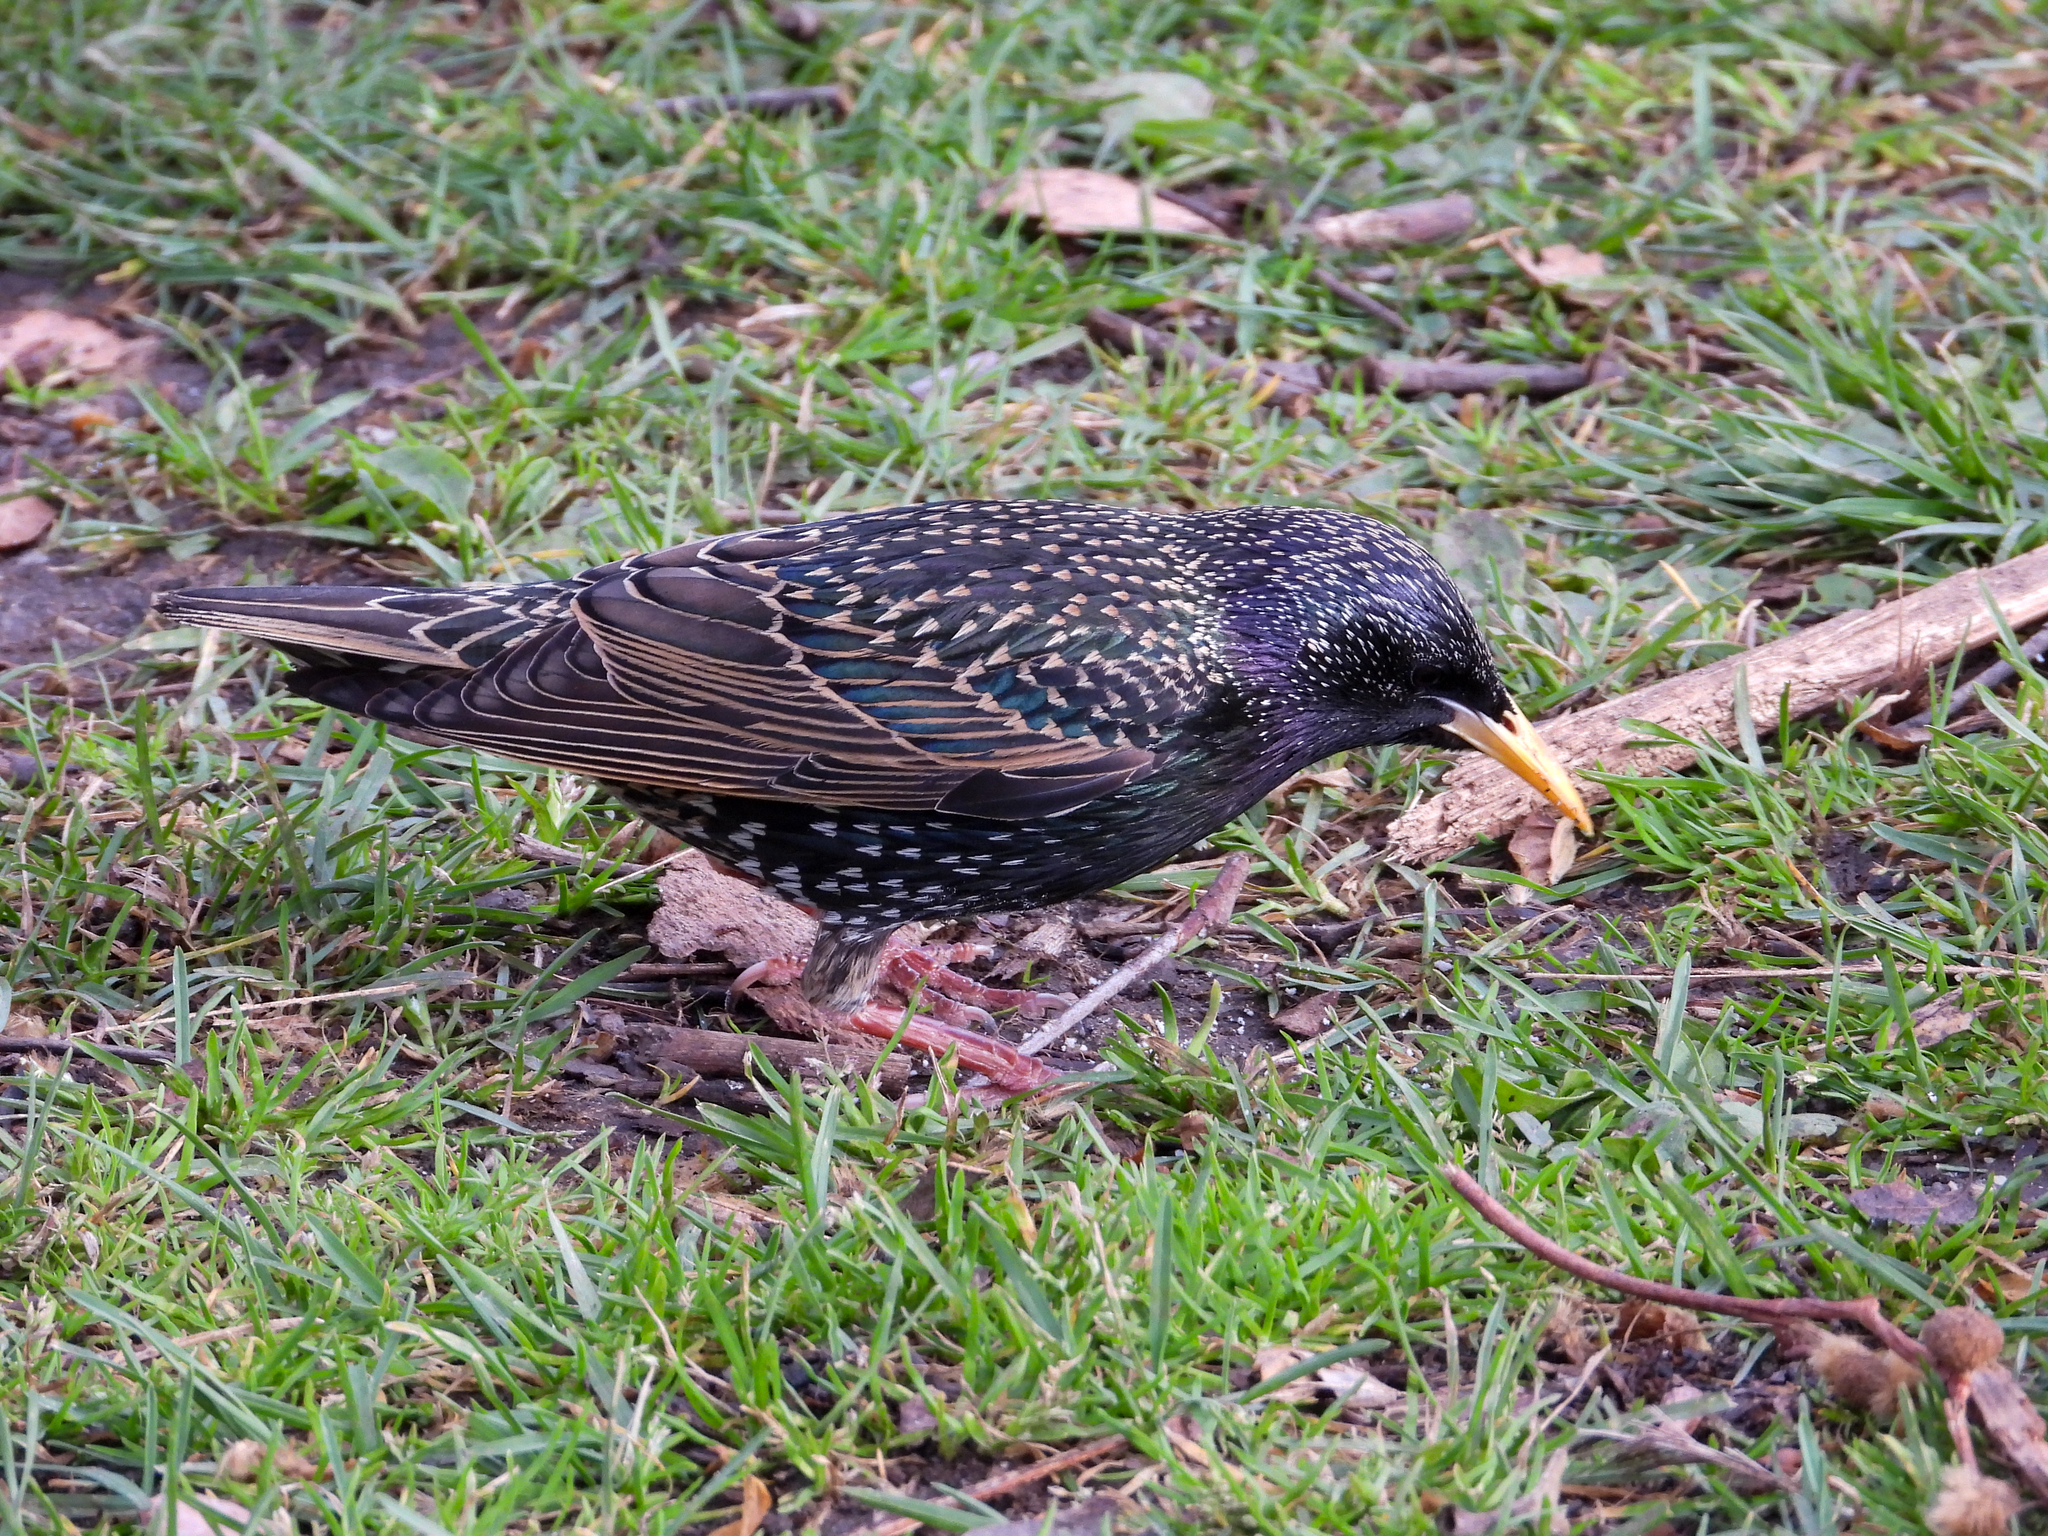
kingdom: Animalia
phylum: Chordata
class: Aves
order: Passeriformes
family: Sturnidae
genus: Sturnus
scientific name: Sturnus vulgaris
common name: Common starling
